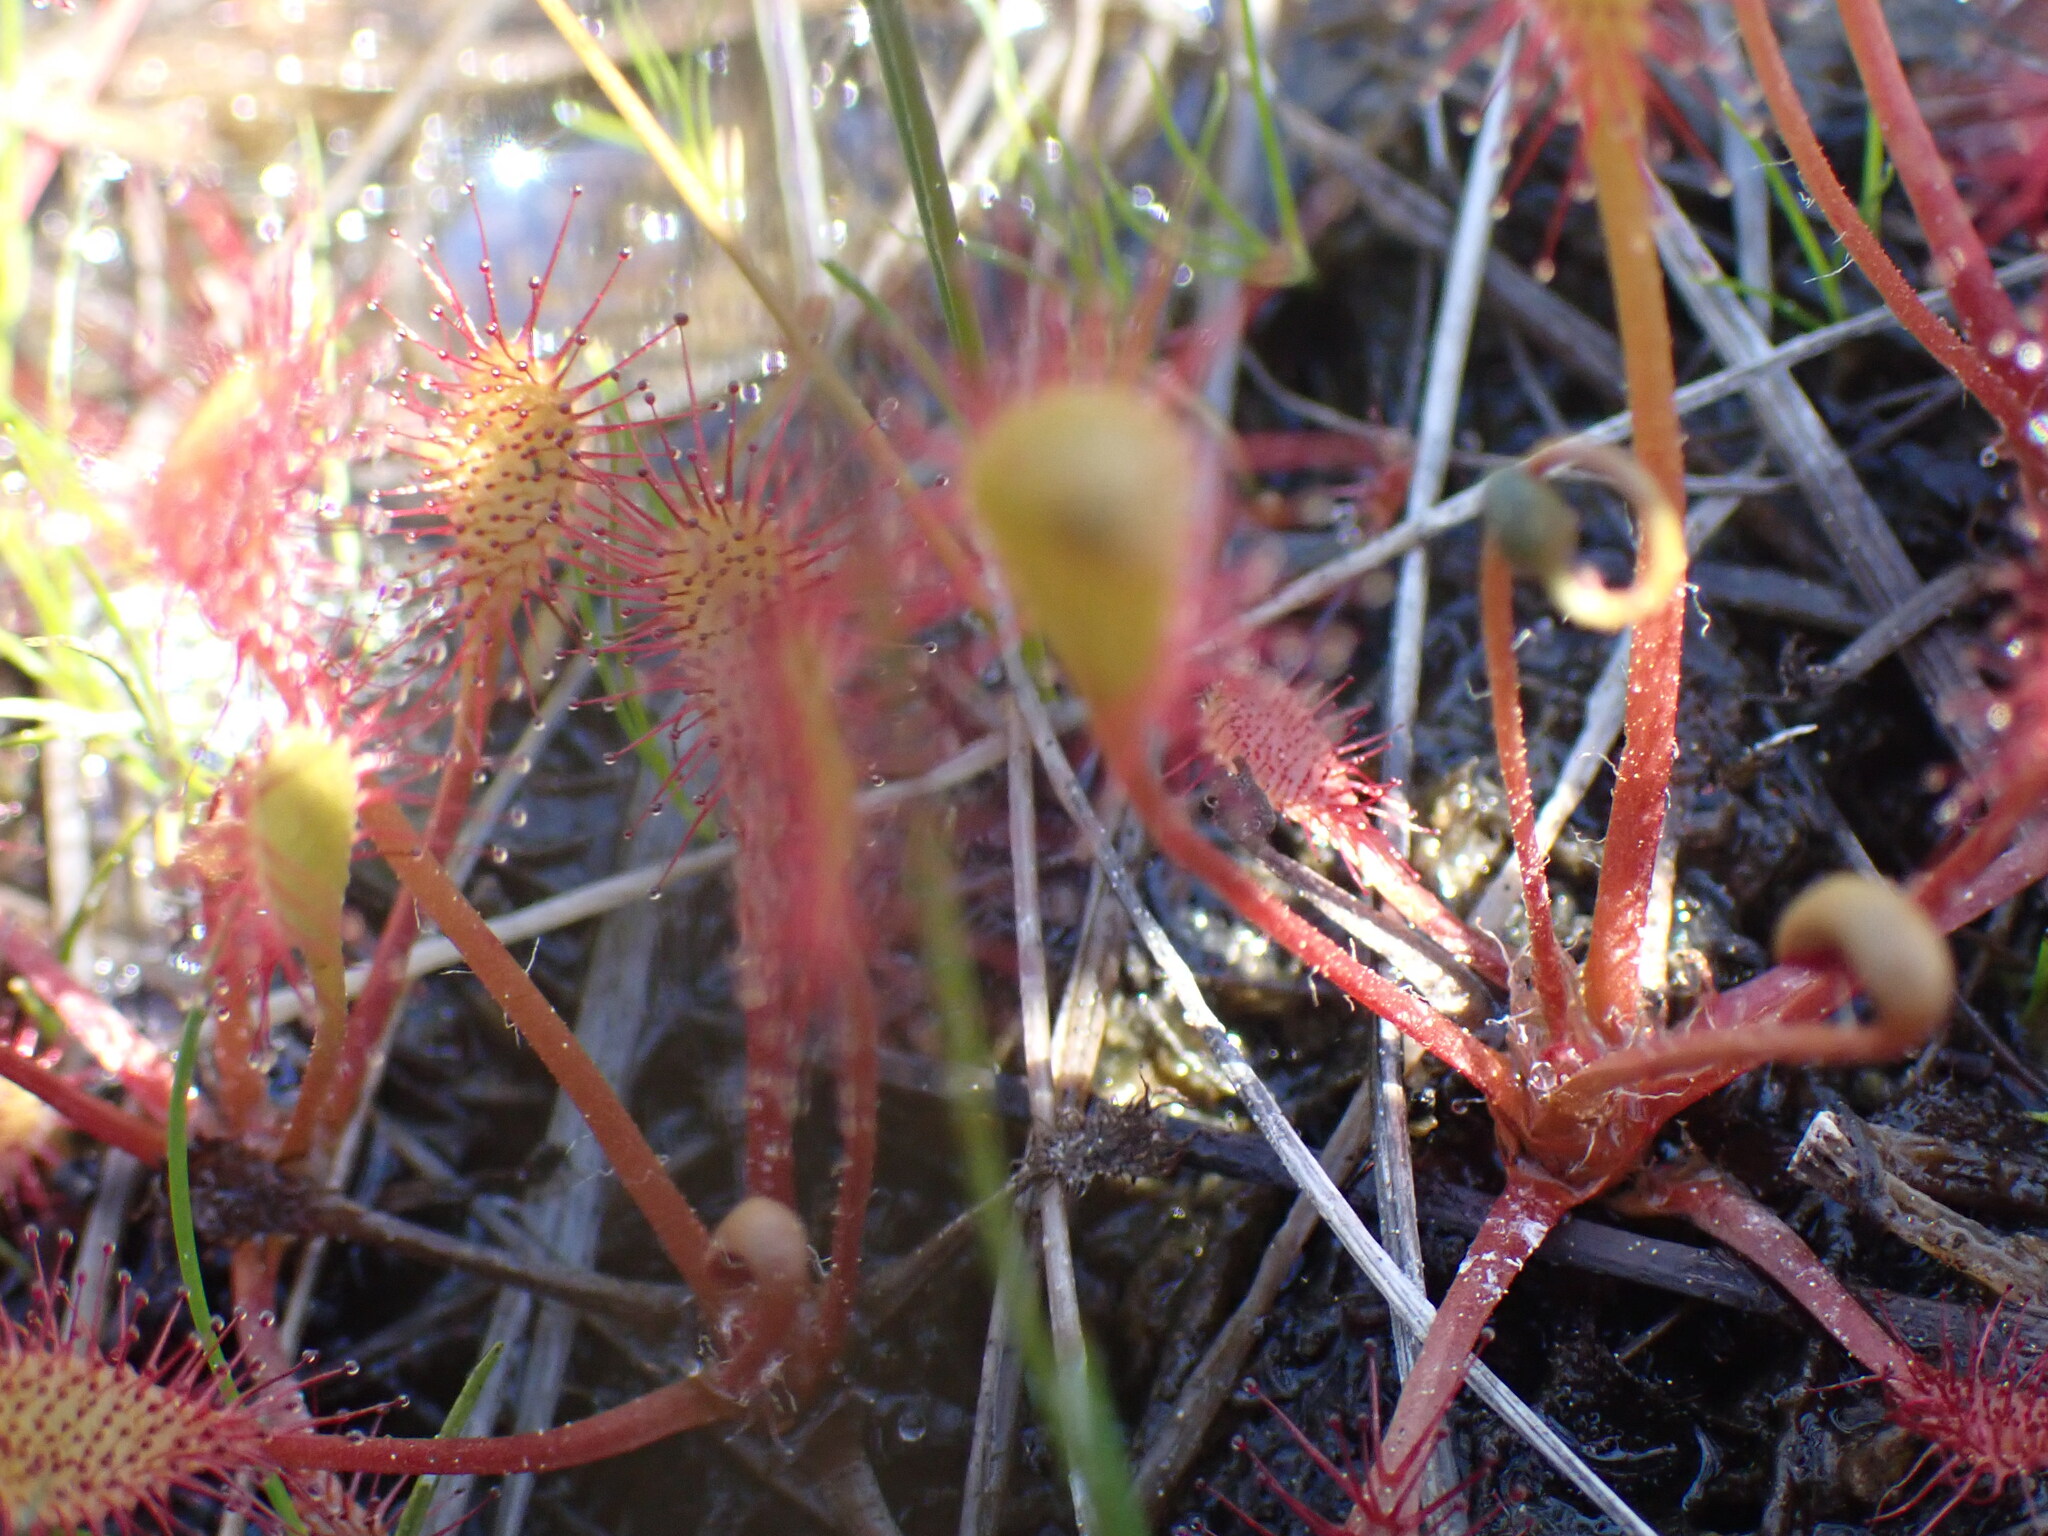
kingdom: Plantae
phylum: Tracheophyta
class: Magnoliopsida
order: Caryophyllales
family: Droseraceae
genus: Drosera
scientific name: Drosera anglica
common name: Great sundew
